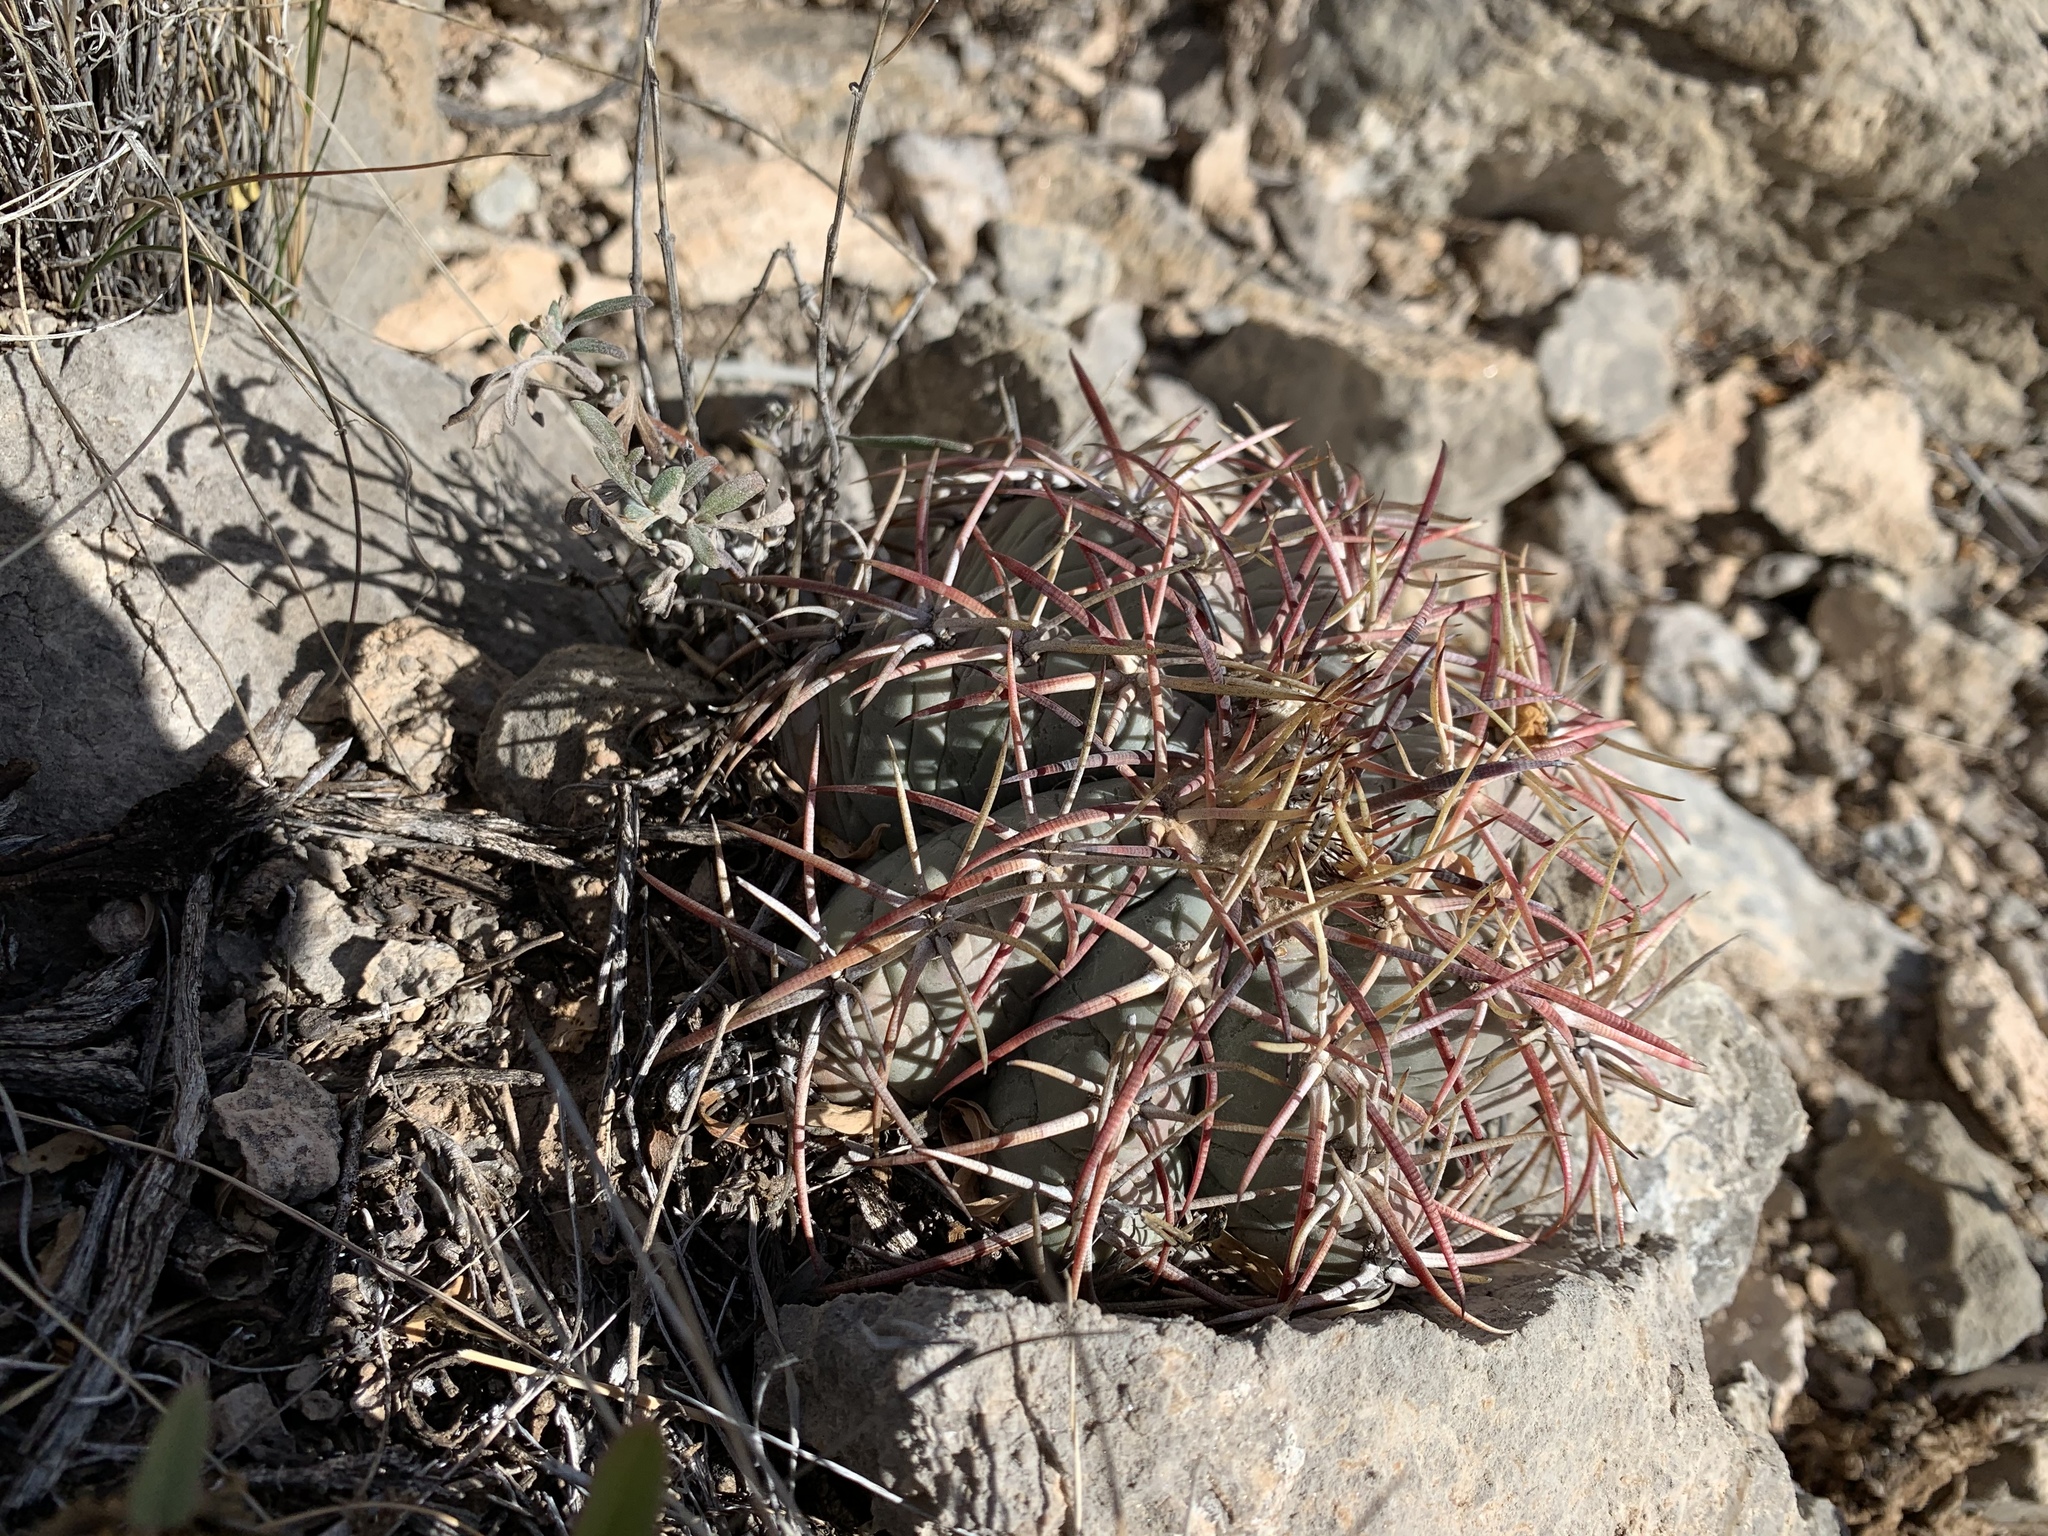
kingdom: Plantae
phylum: Tracheophyta
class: Magnoliopsida
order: Caryophyllales
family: Cactaceae
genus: Echinocactus
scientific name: Echinocactus horizonthalonius
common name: Devilshead
